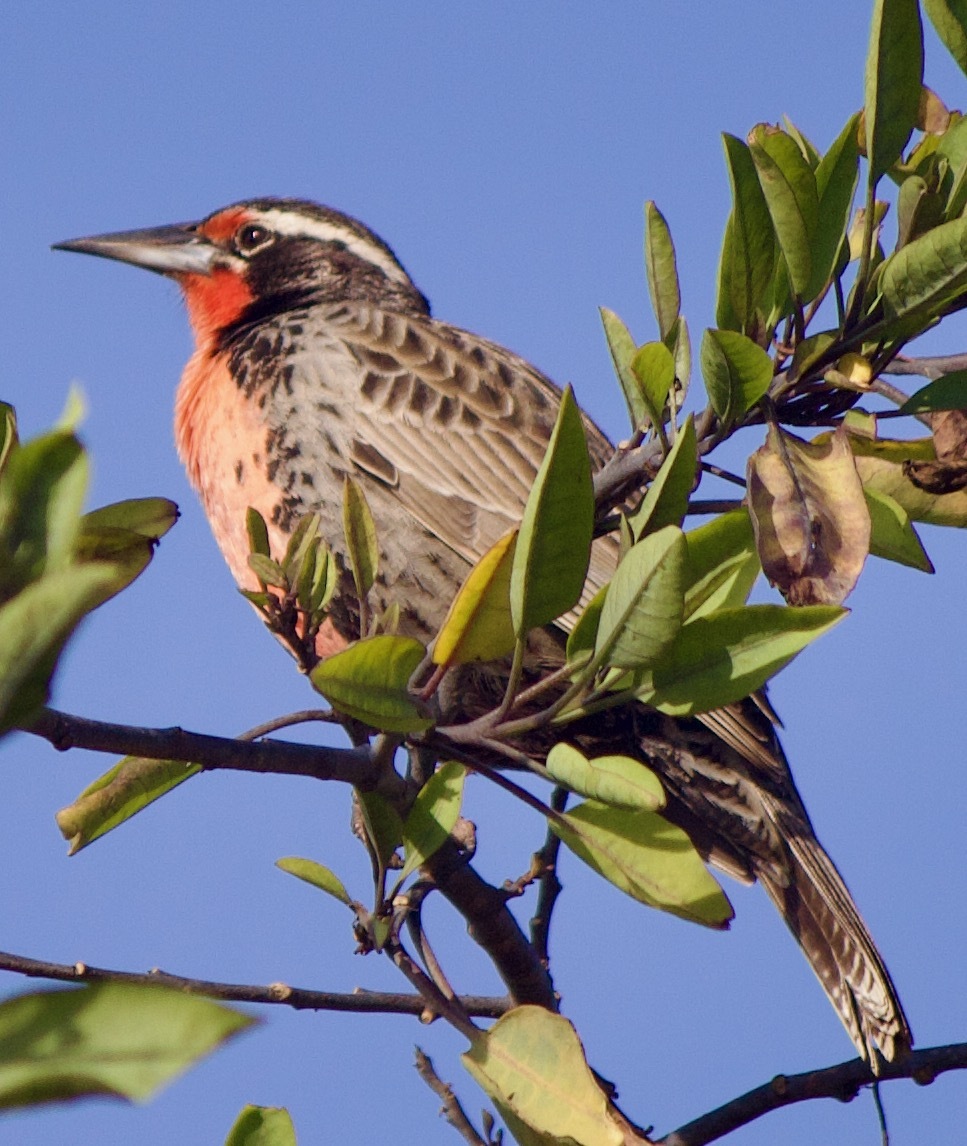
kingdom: Animalia
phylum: Chordata
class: Aves
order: Passeriformes
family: Icteridae
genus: Sturnella
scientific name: Sturnella loyca
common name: Long-tailed meadowlark
